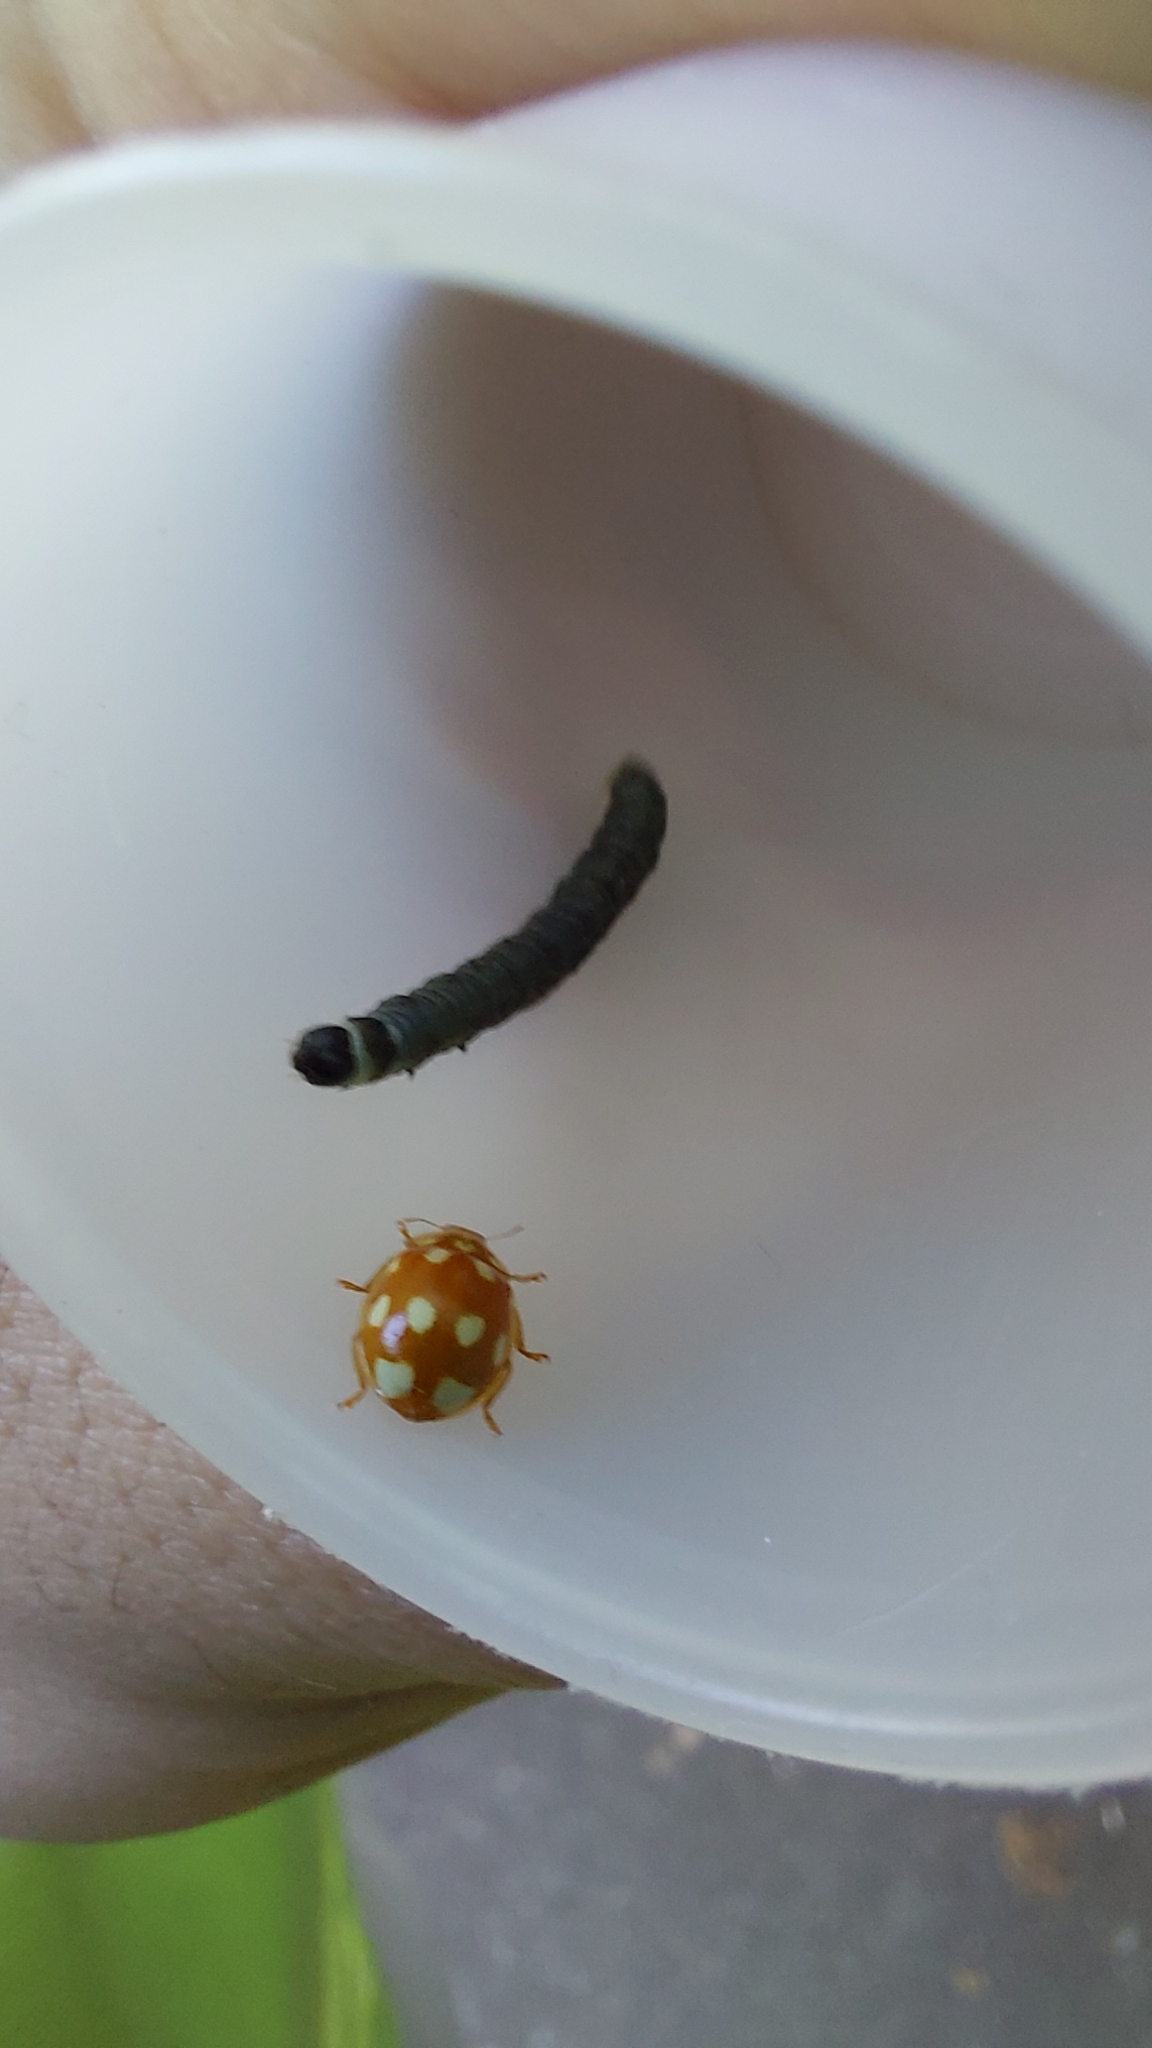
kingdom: Animalia
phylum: Arthropoda
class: Insecta
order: Coleoptera
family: Coccinellidae
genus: Calvia
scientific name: Calvia decemguttata
